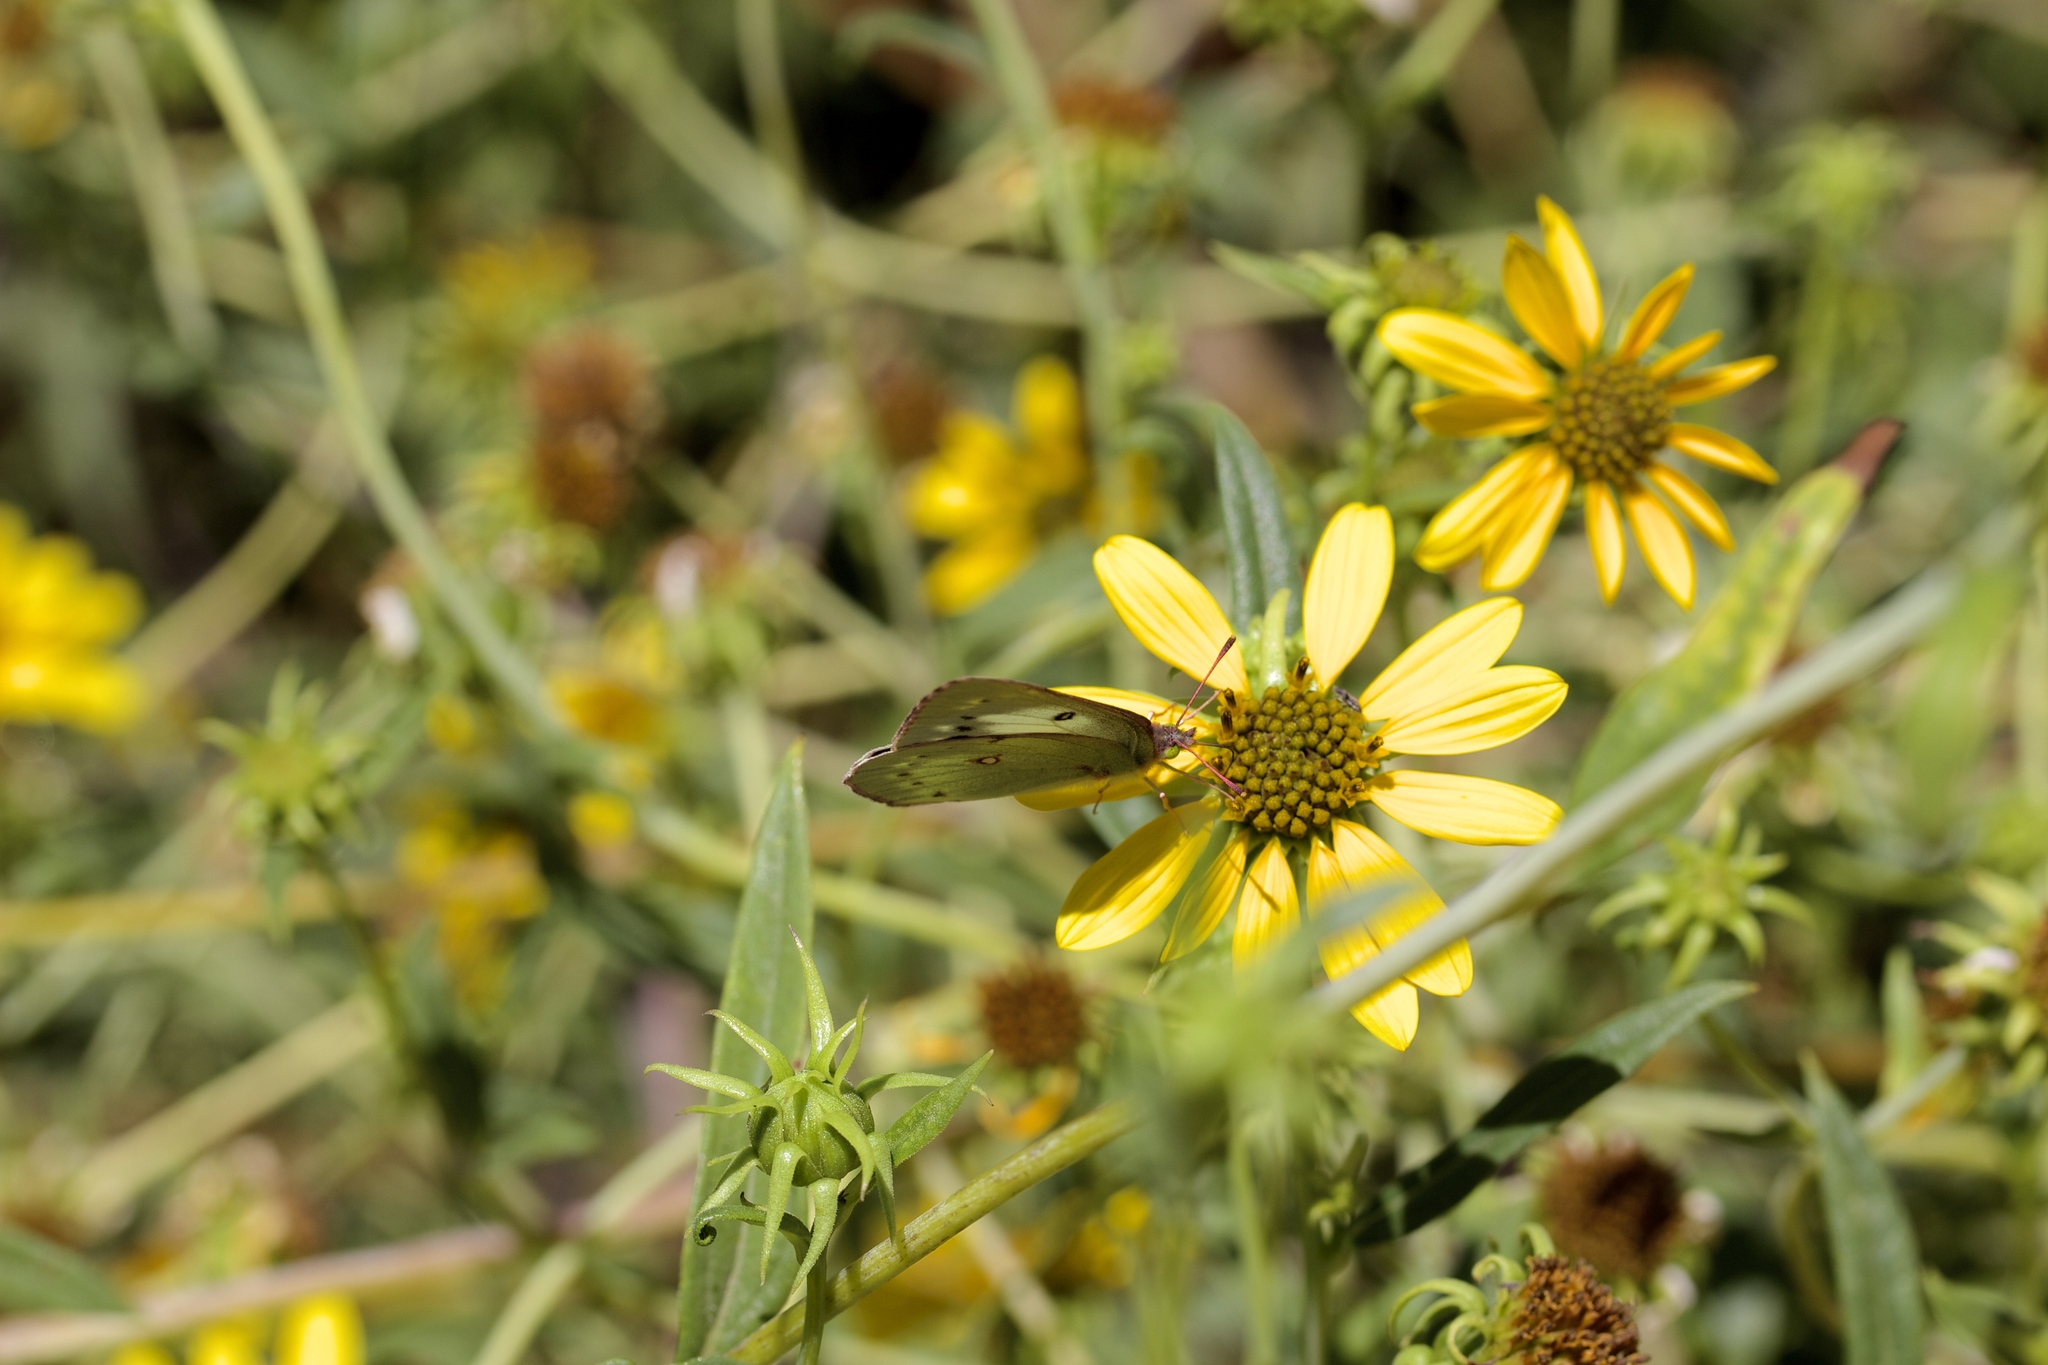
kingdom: Plantae
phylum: Tracheophyta
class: Magnoliopsida
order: Asterales
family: Asteraceae
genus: Helianthus
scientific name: Helianthus californicus
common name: California sunflower
